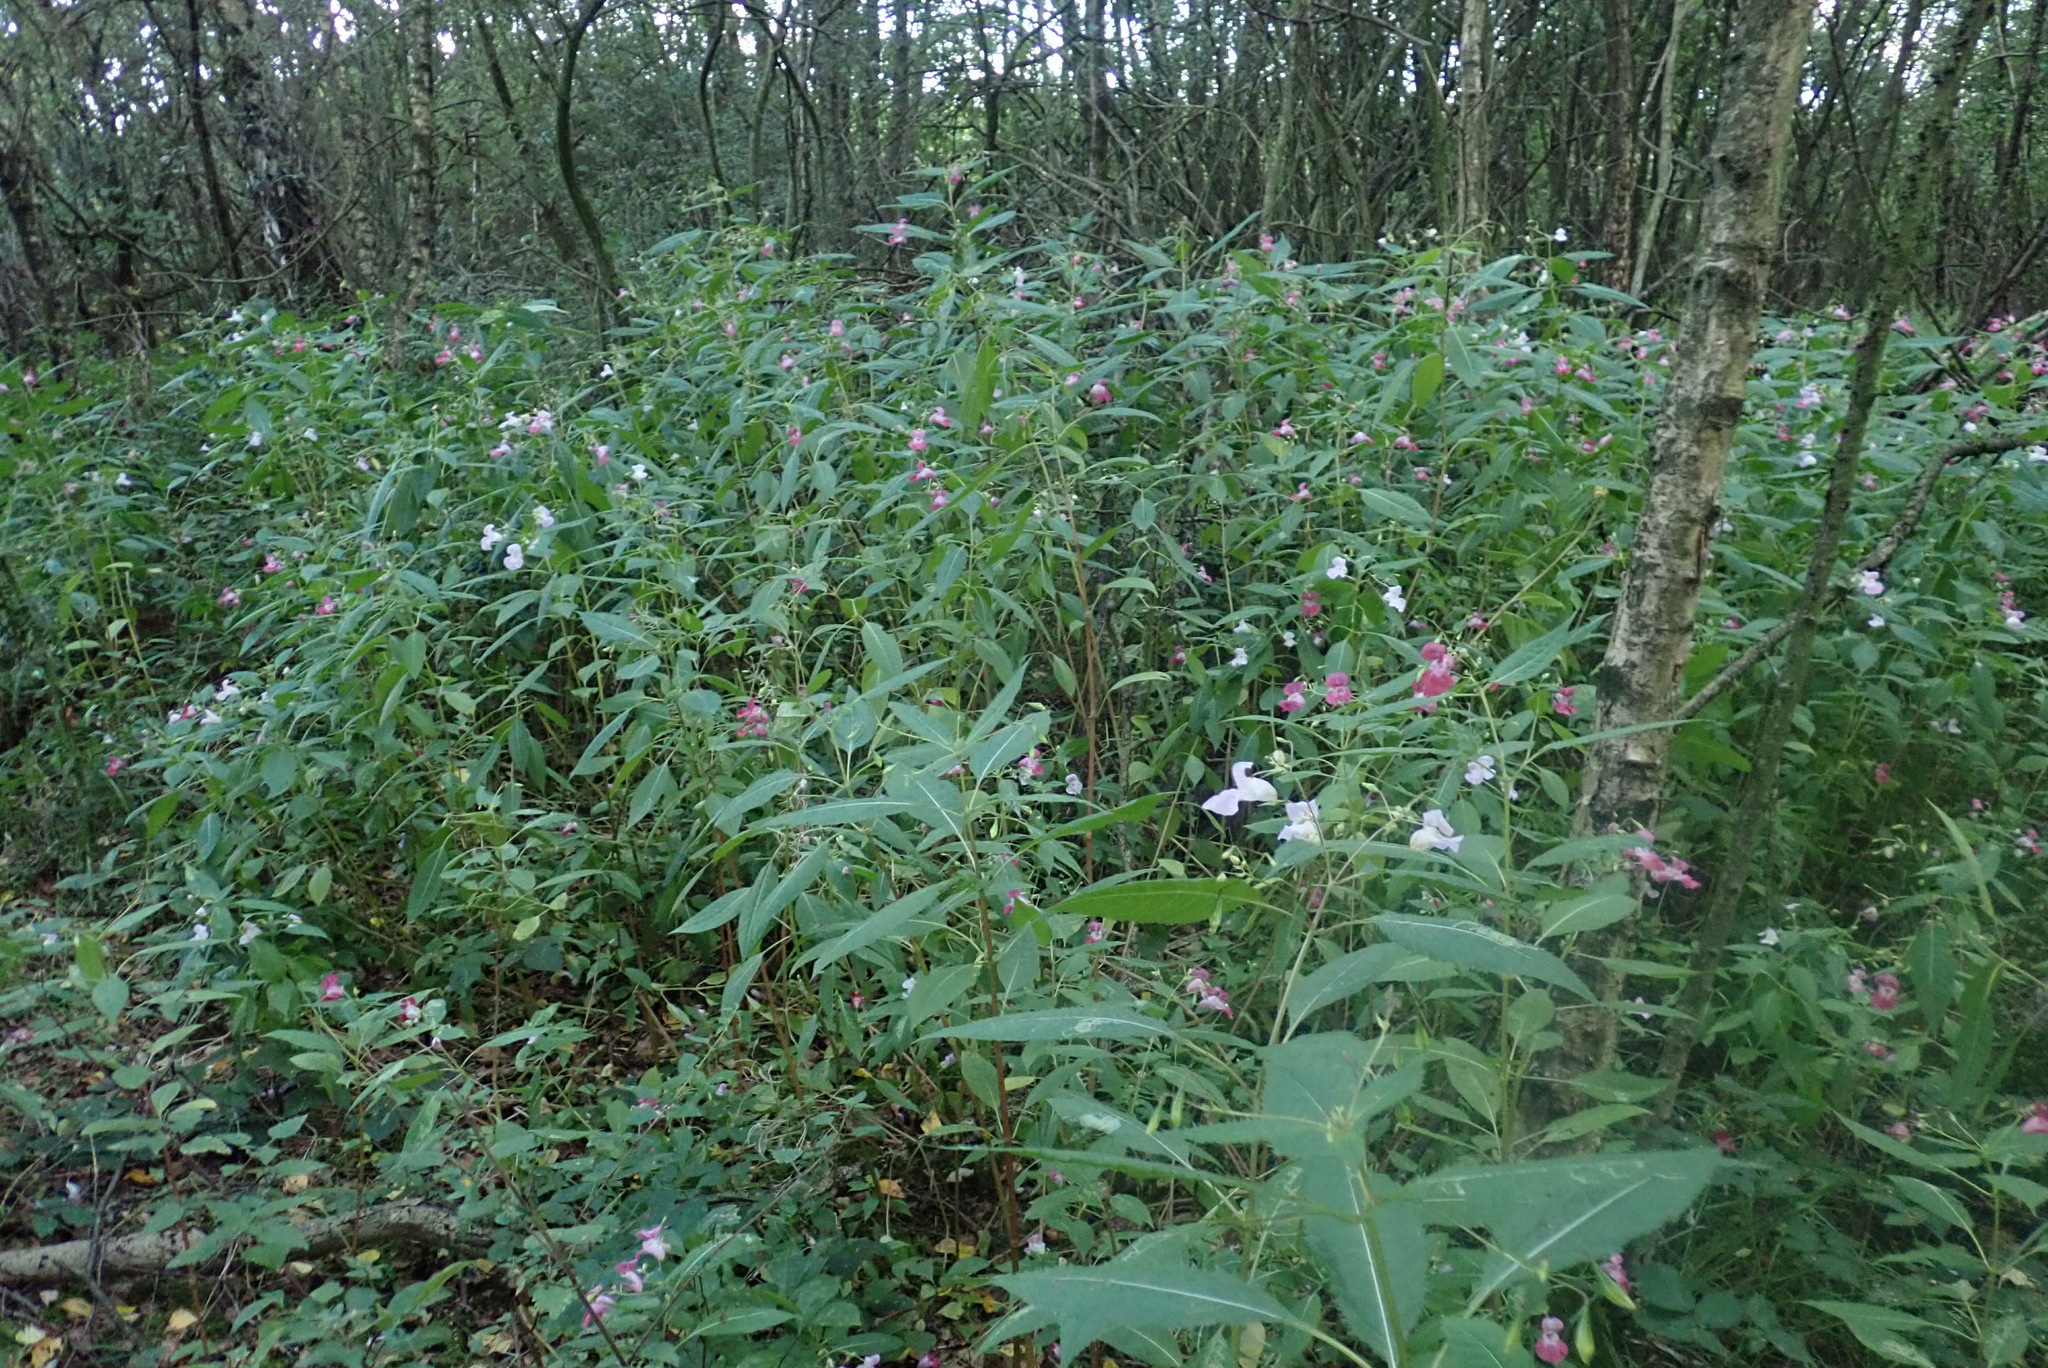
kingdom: Plantae
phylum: Tracheophyta
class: Magnoliopsida
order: Ericales
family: Balsaminaceae
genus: Impatiens
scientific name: Impatiens glandulifera
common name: Himalayan balsam
